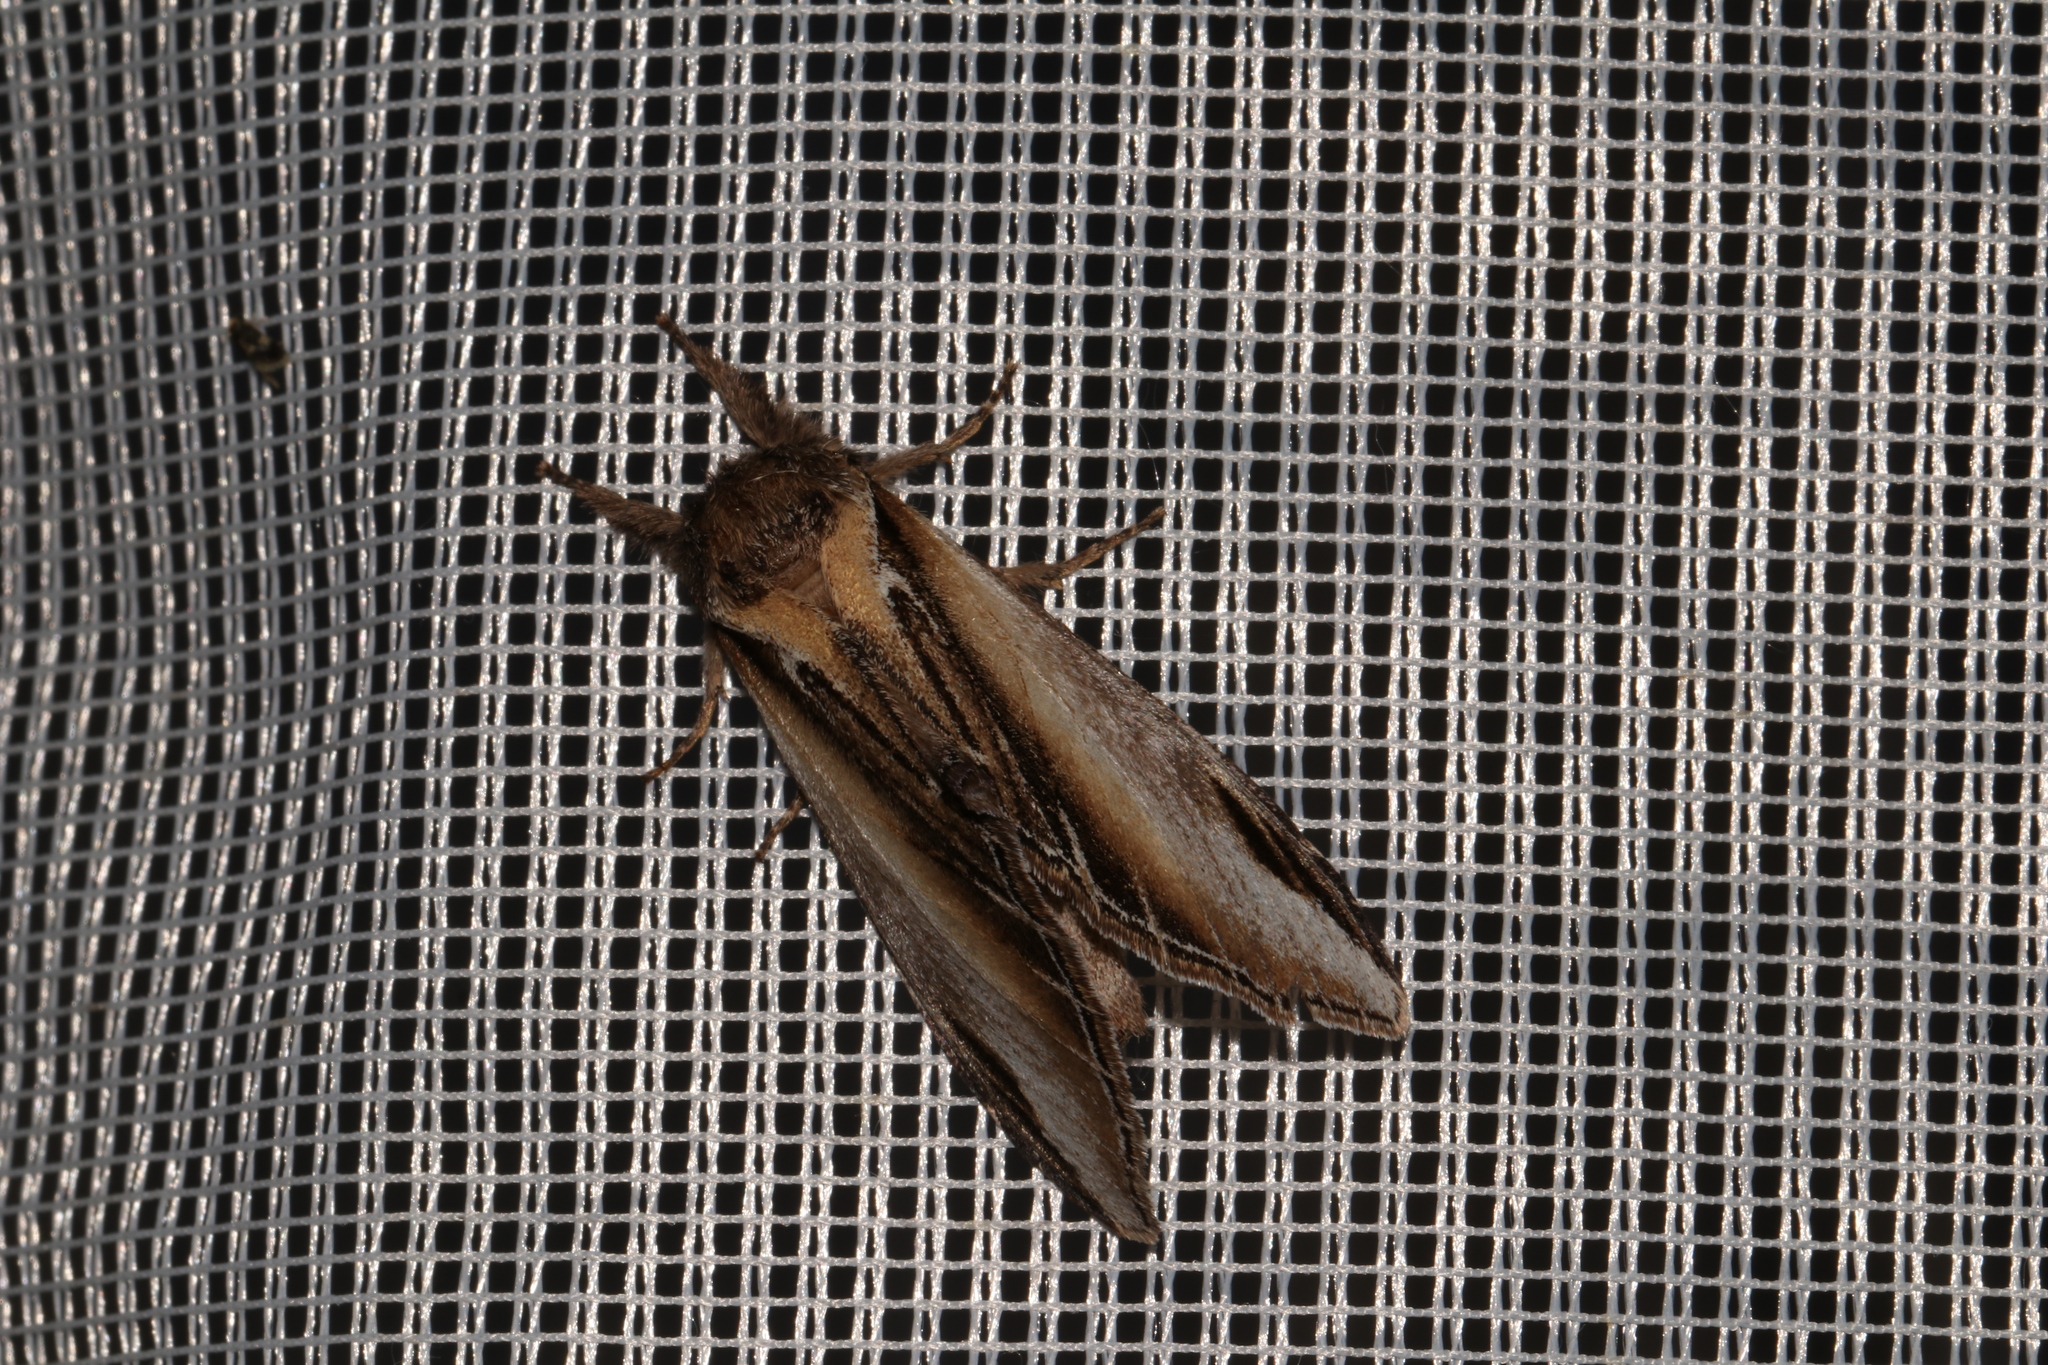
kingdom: Animalia
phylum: Arthropoda
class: Insecta
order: Lepidoptera
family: Notodontidae
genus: Pheosia
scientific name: Pheosia tremula
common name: Swallow prominent
